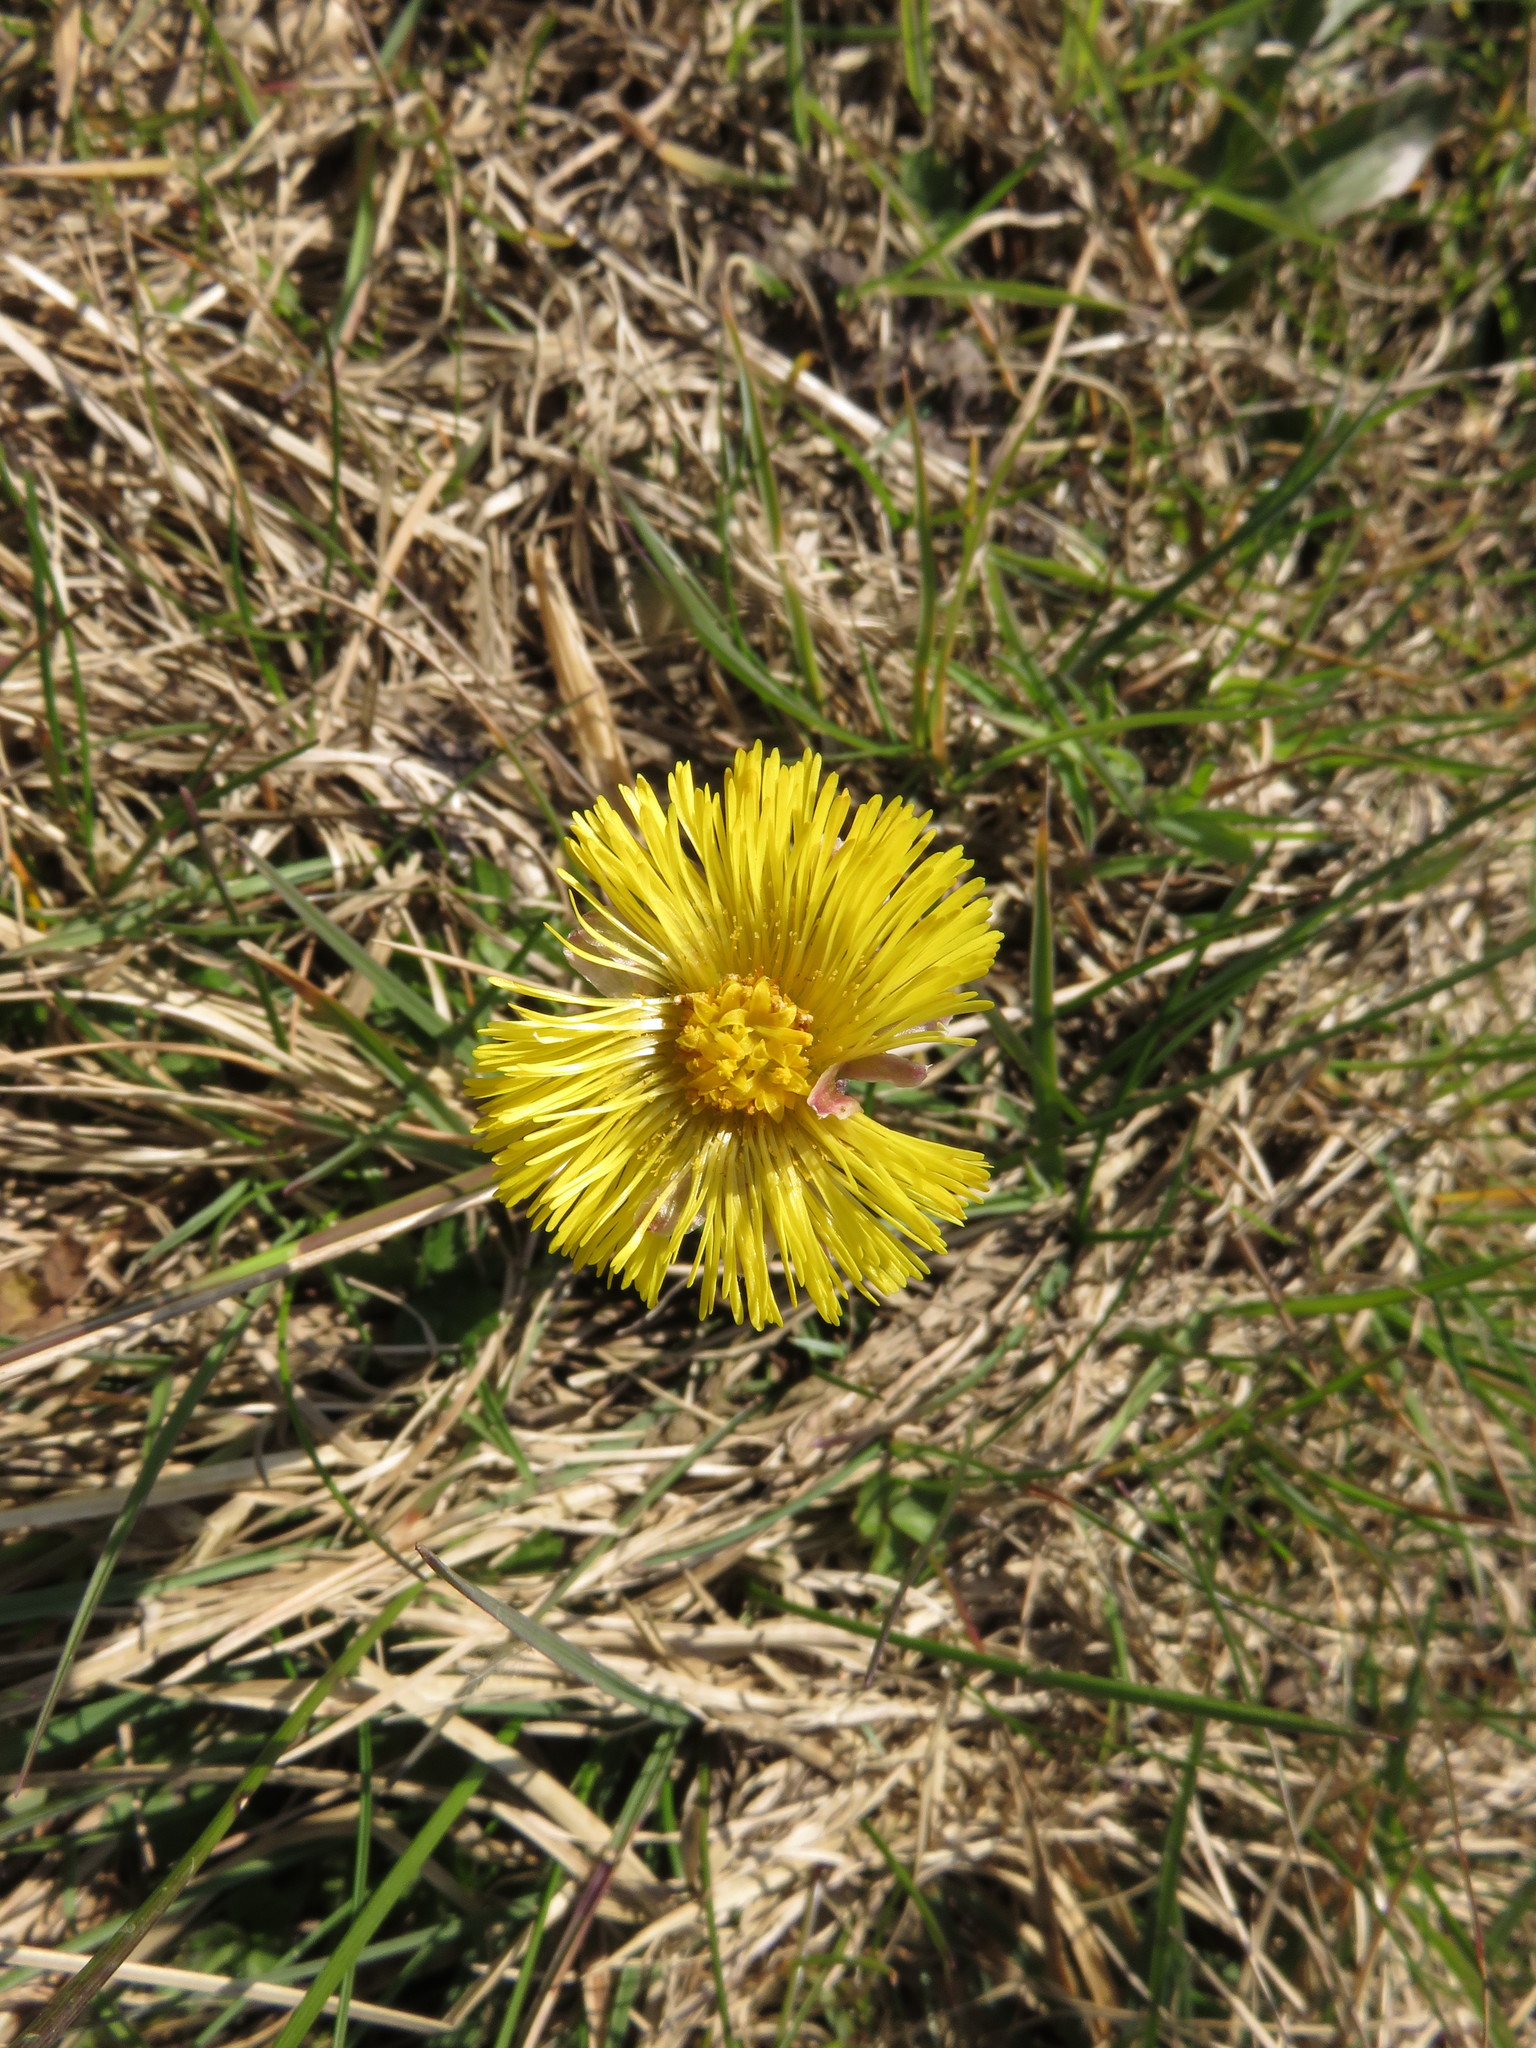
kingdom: Plantae
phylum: Tracheophyta
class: Magnoliopsida
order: Asterales
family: Asteraceae
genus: Tussilago
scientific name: Tussilago farfara
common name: Coltsfoot
